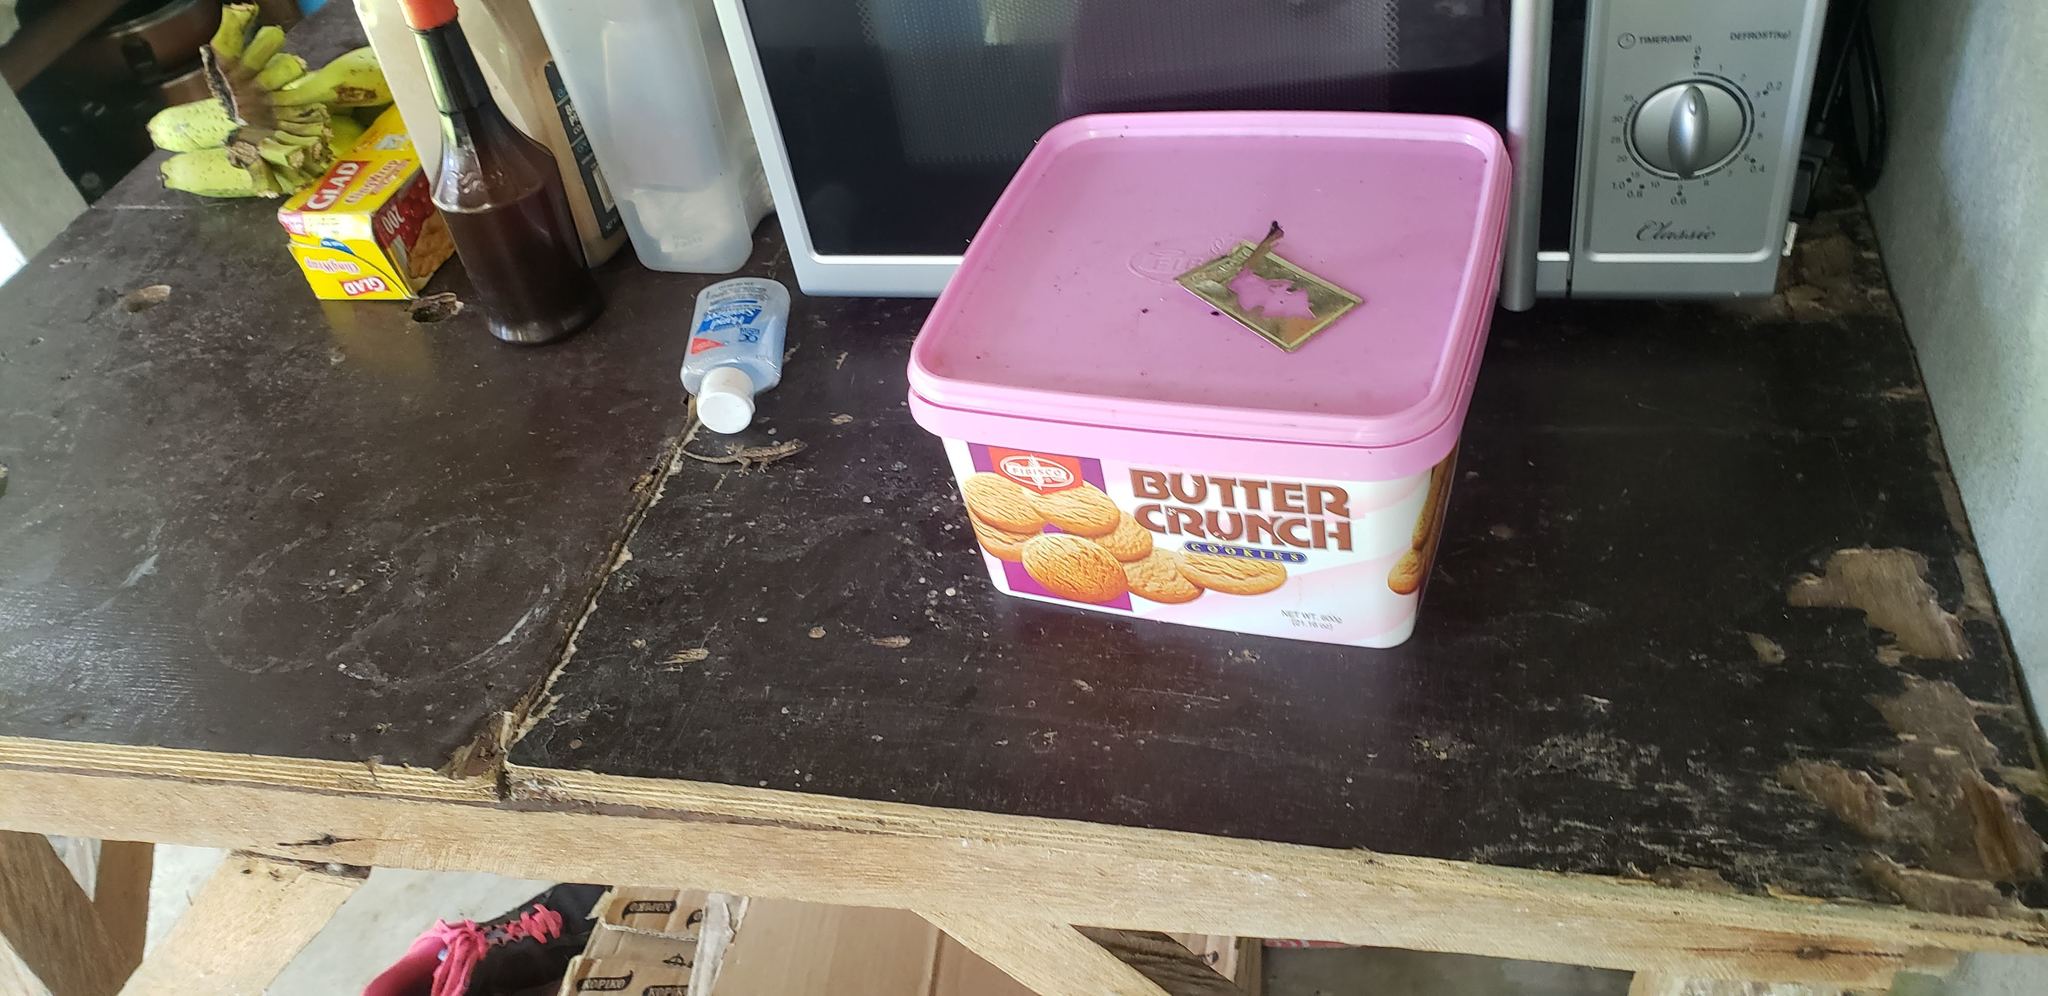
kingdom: Animalia
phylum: Chordata
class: Squamata
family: Gekkonidae
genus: Hemidactylus
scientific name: Hemidactylus platyurus
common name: Flat-tailed house gecko
